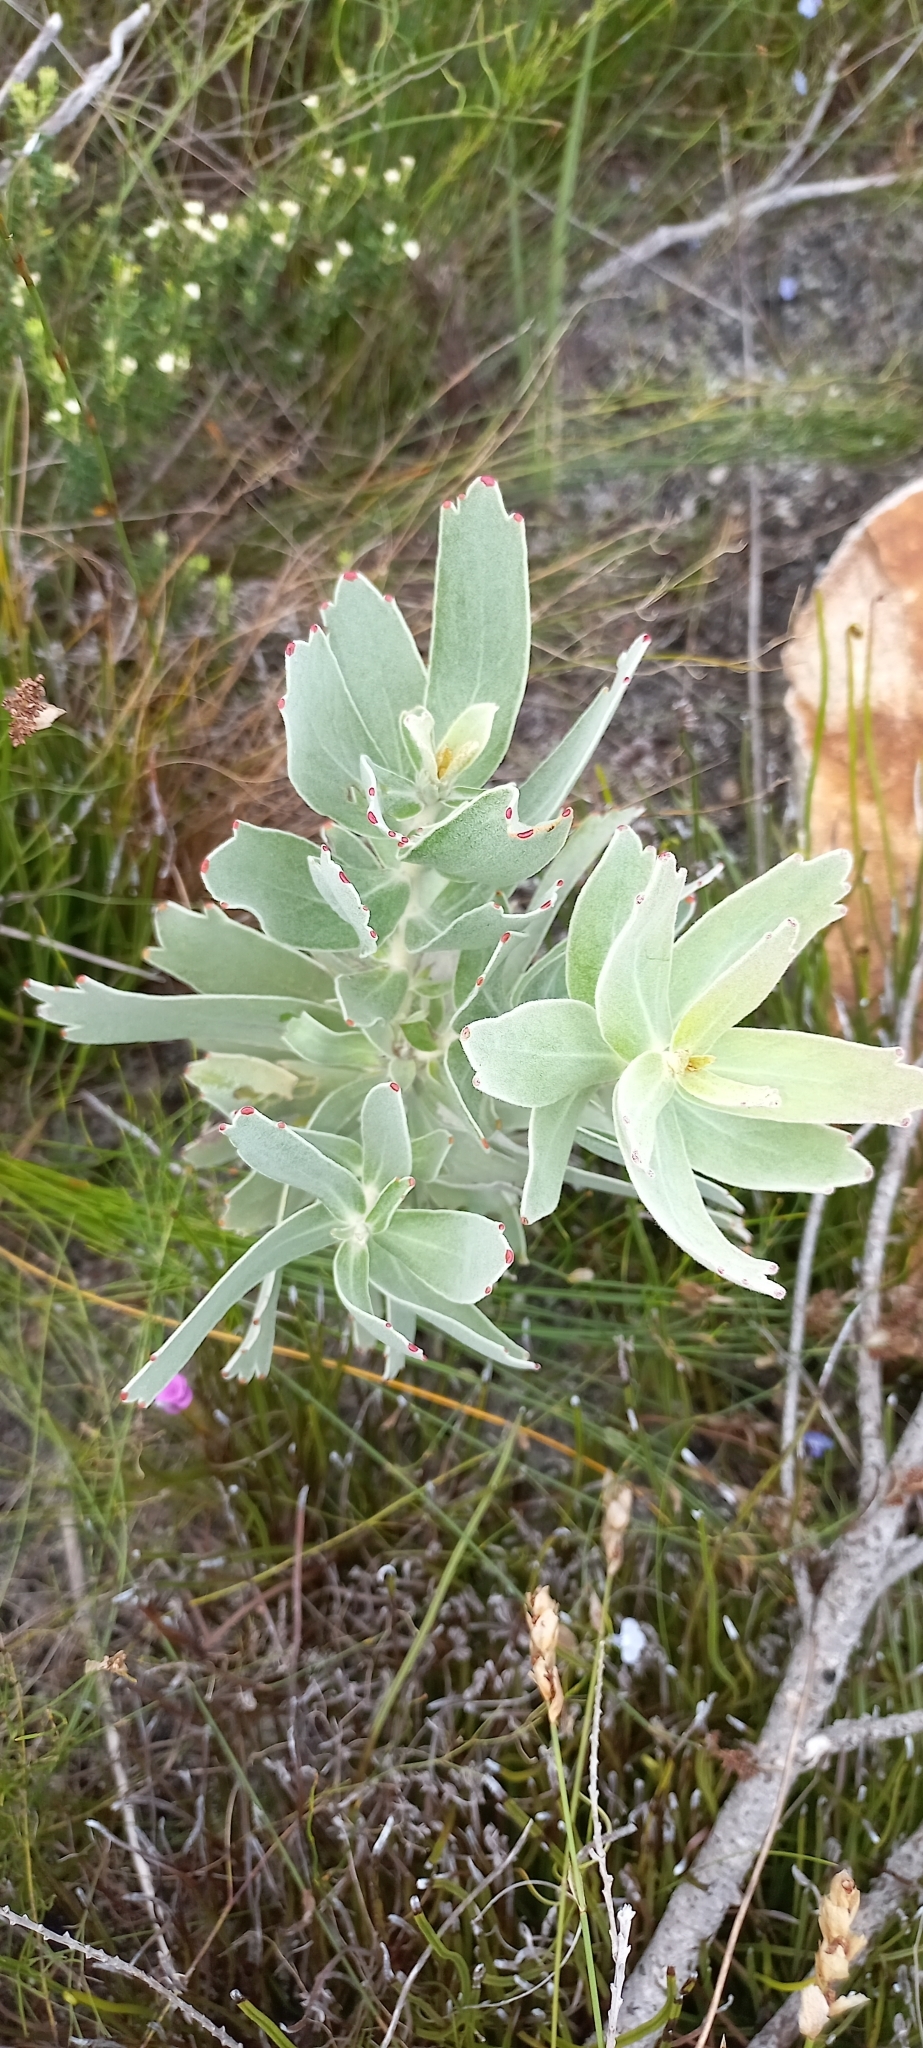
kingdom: Plantae
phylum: Tracheophyta
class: Magnoliopsida
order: Proteales
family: Proteaceae
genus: Leucospermum
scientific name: Leucospermum cordifolium
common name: Red pincushion-protea
